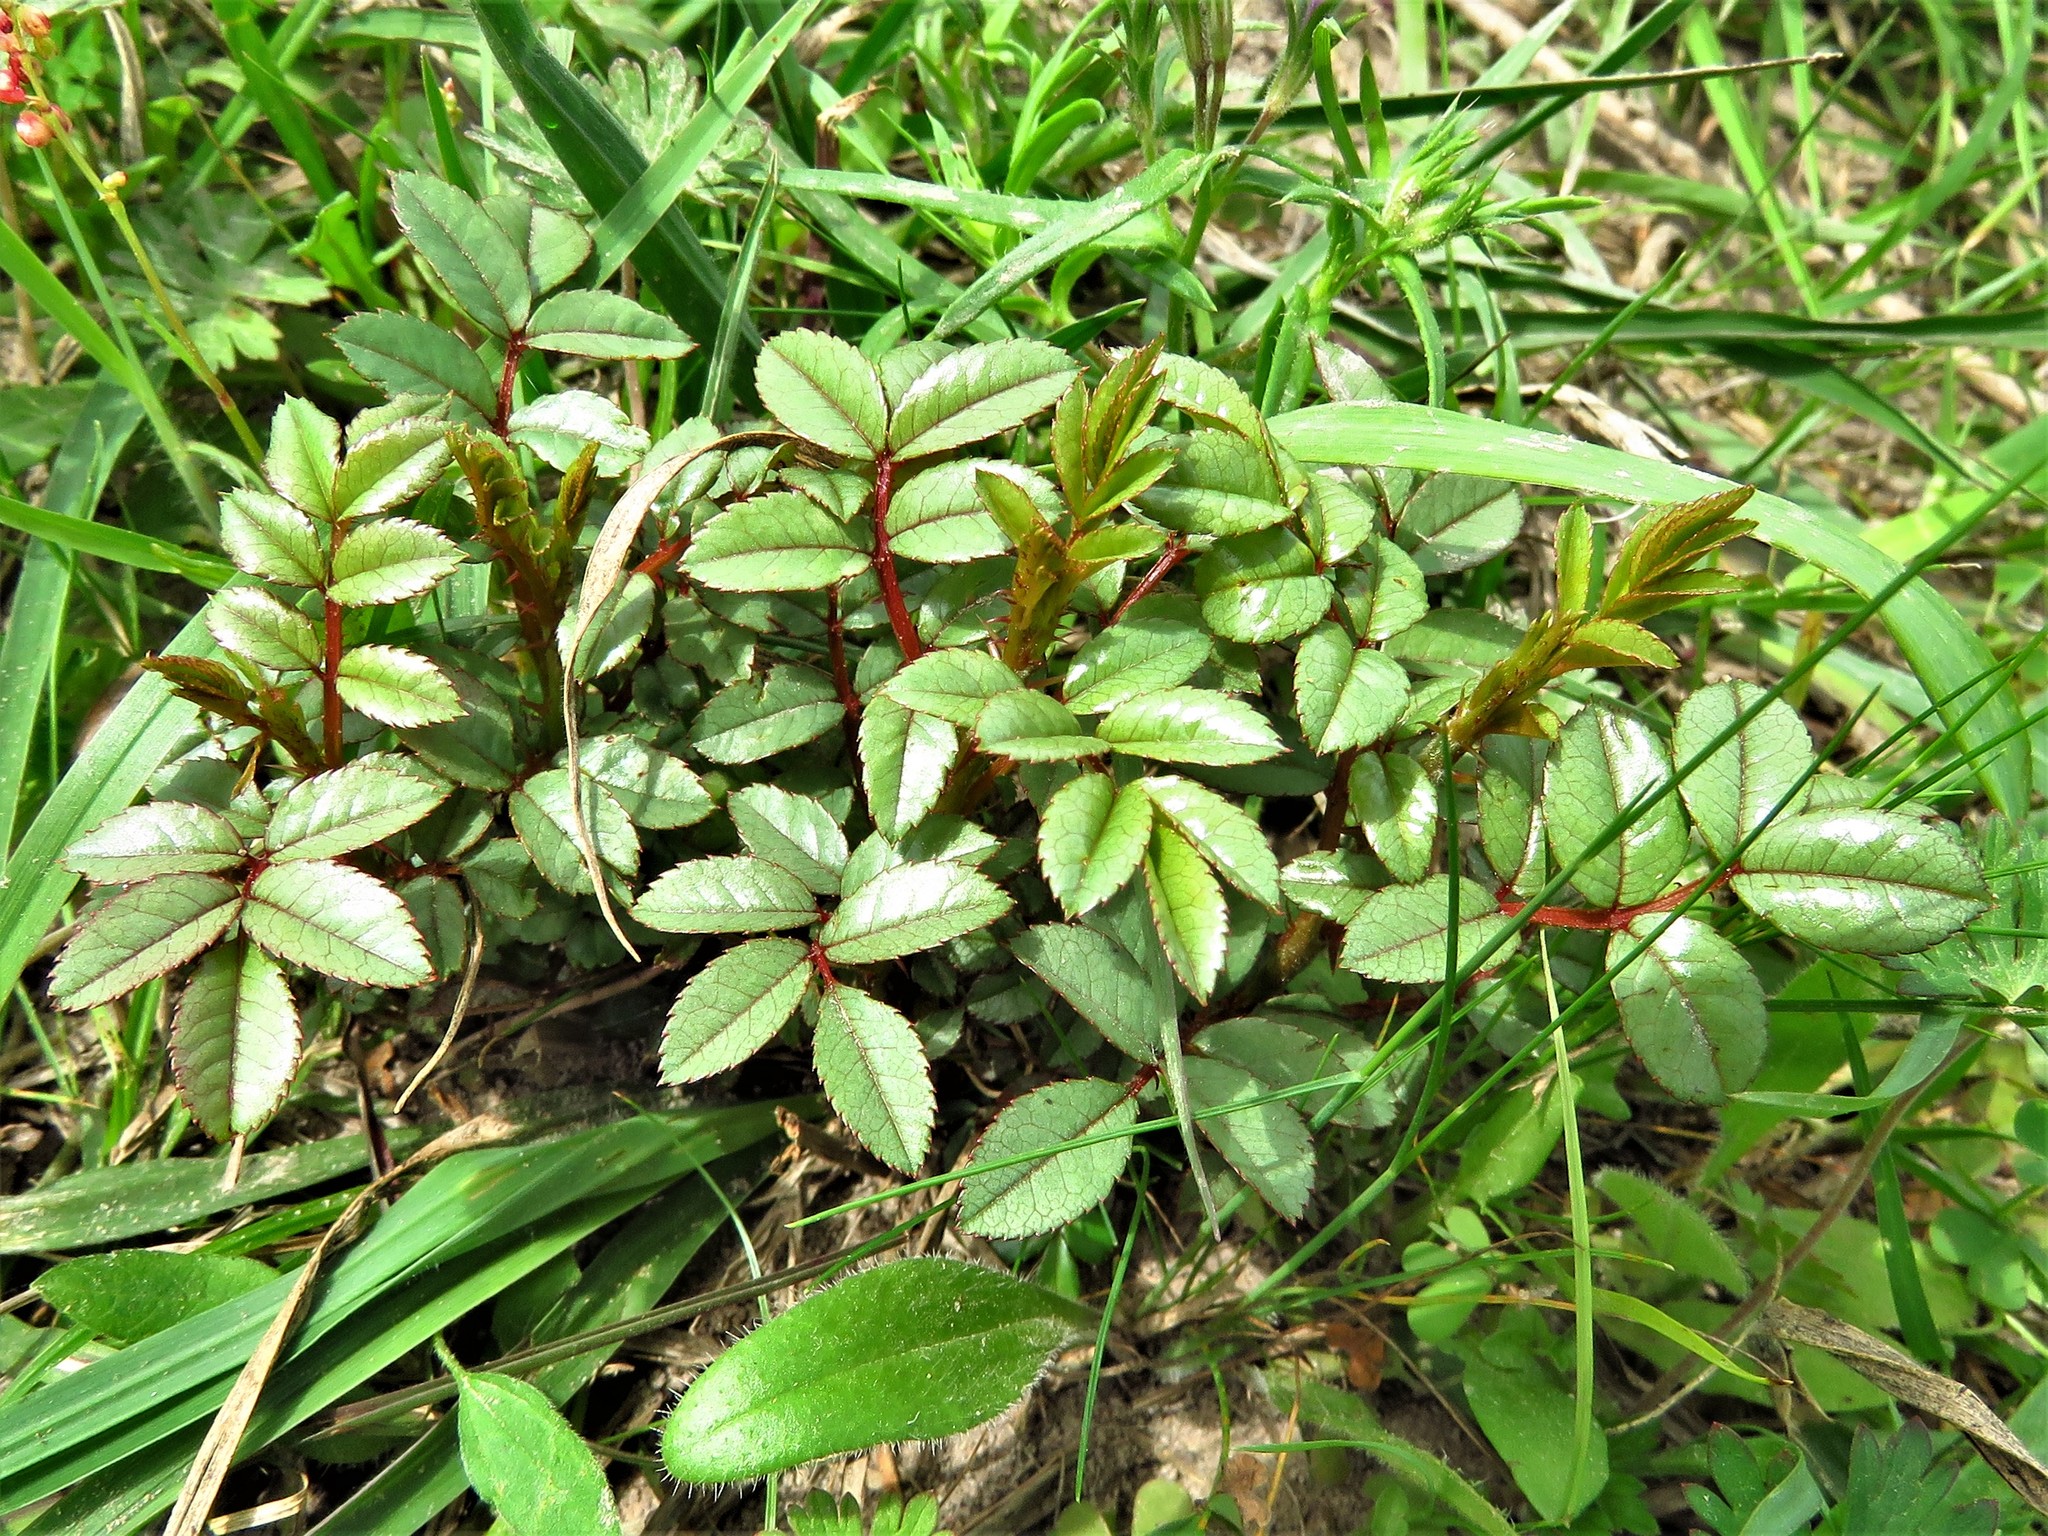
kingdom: Plantae
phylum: Tracheophyta
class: Magnoliopsida
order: Rosales
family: Rosaceae
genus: Rosa
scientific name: Rosa bracteata
